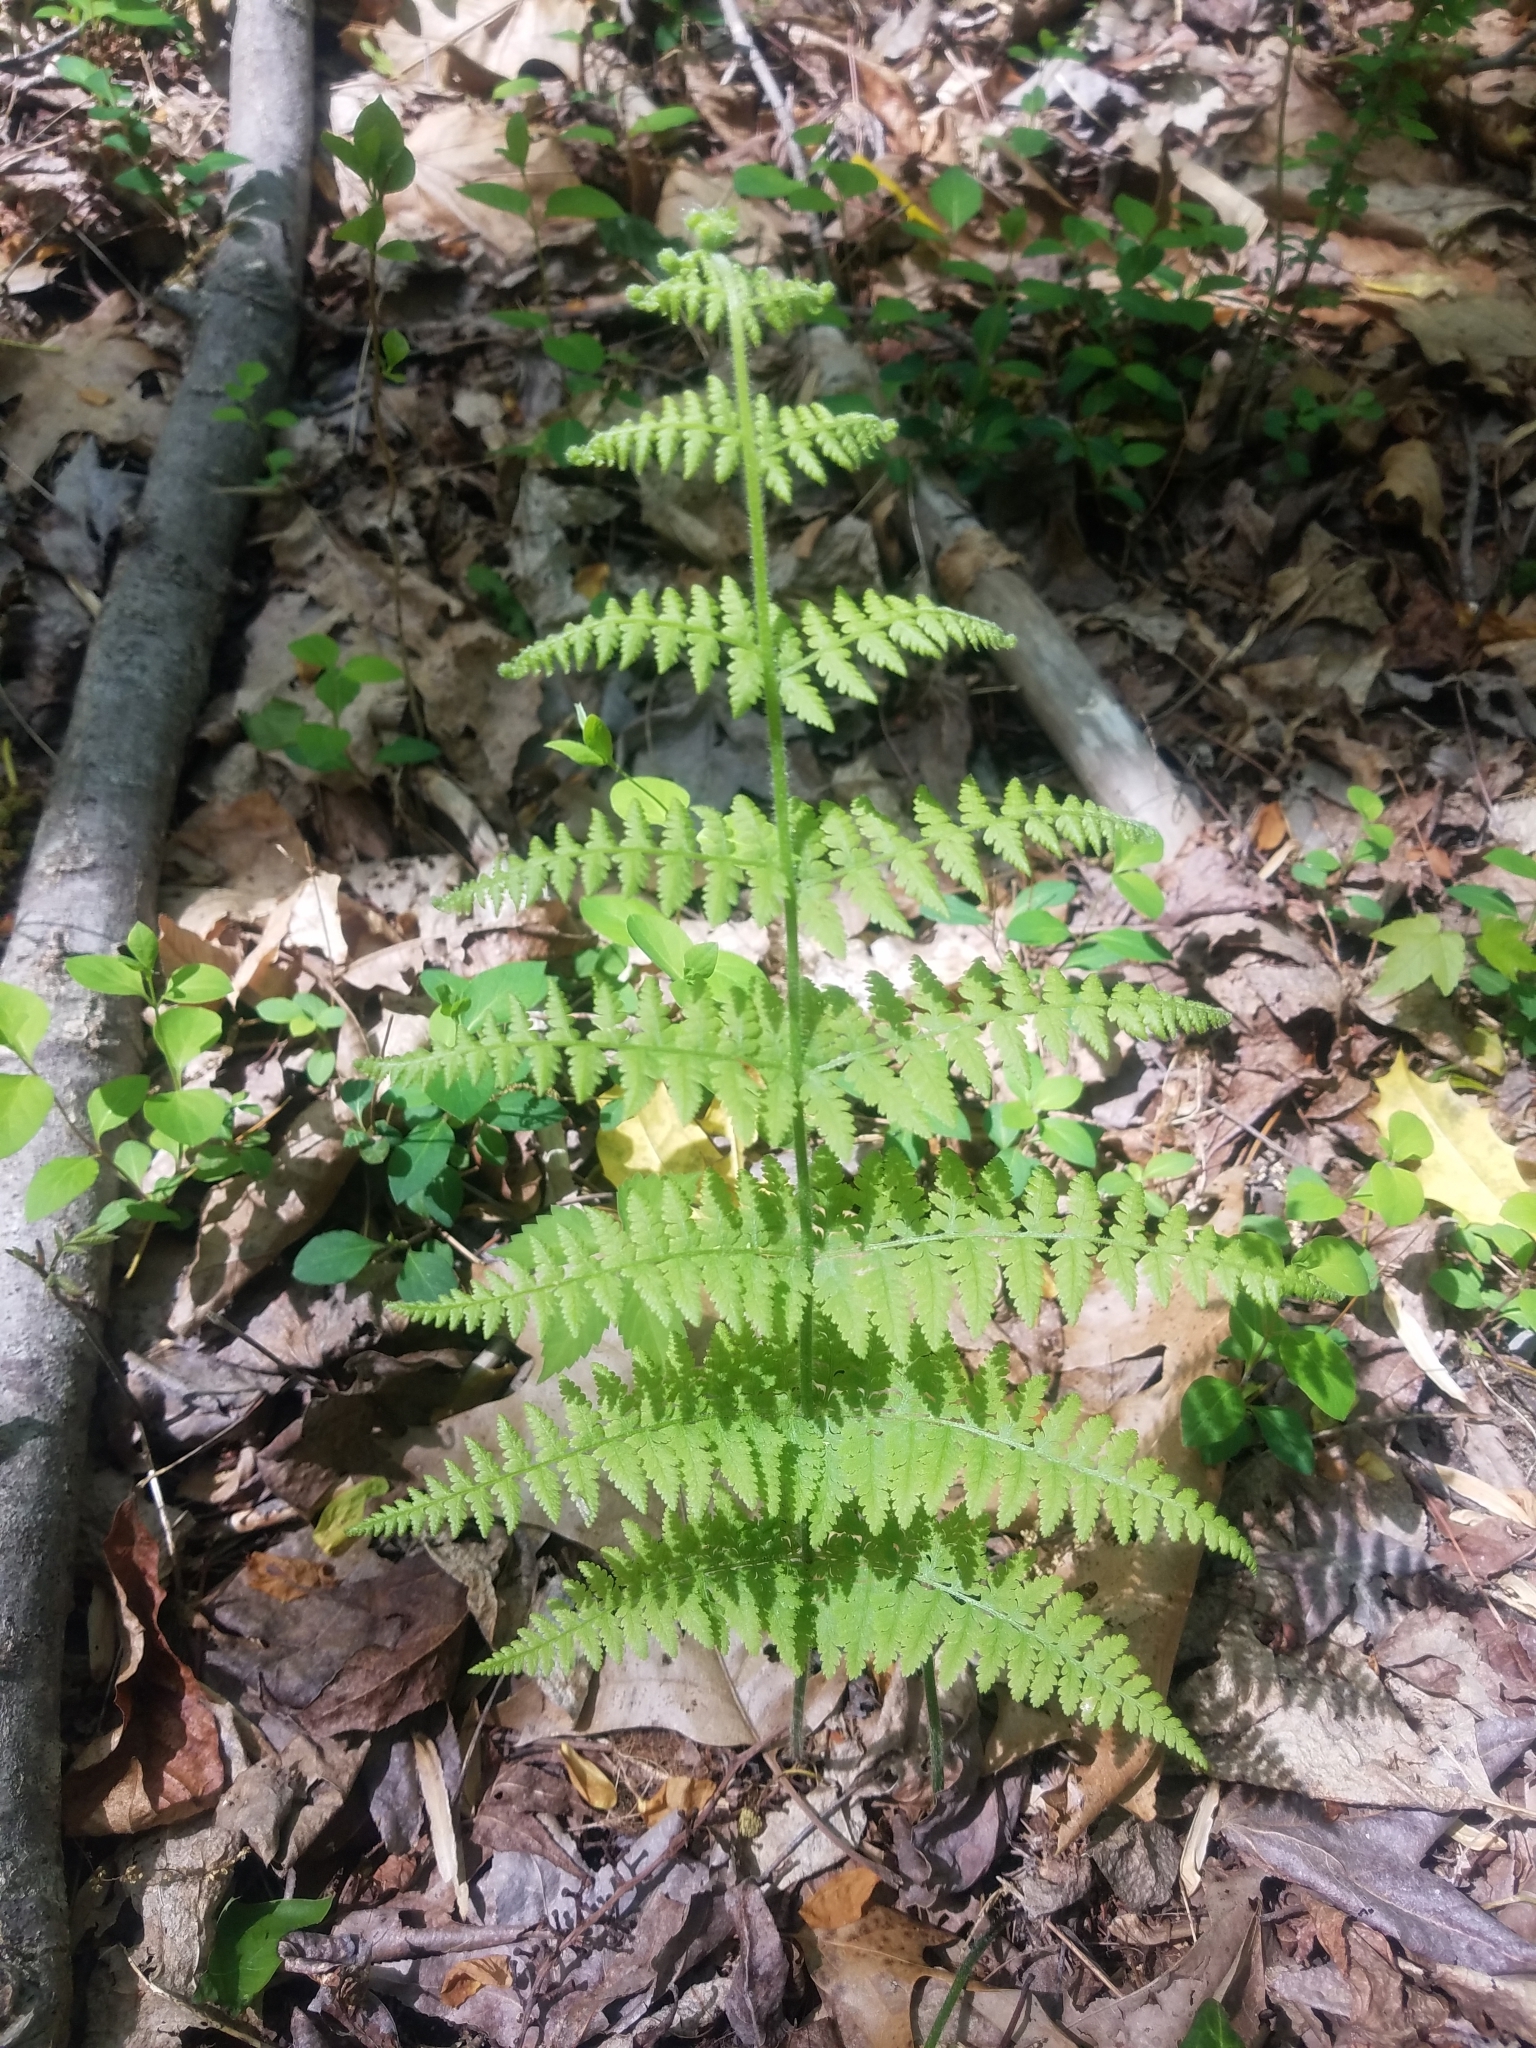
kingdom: Plantae
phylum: Tracheophyta
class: Polypodiopsida
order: Polypodiales
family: Dennstaedtiaceae
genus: Sitobolium
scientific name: Sitobolium punctilobum
